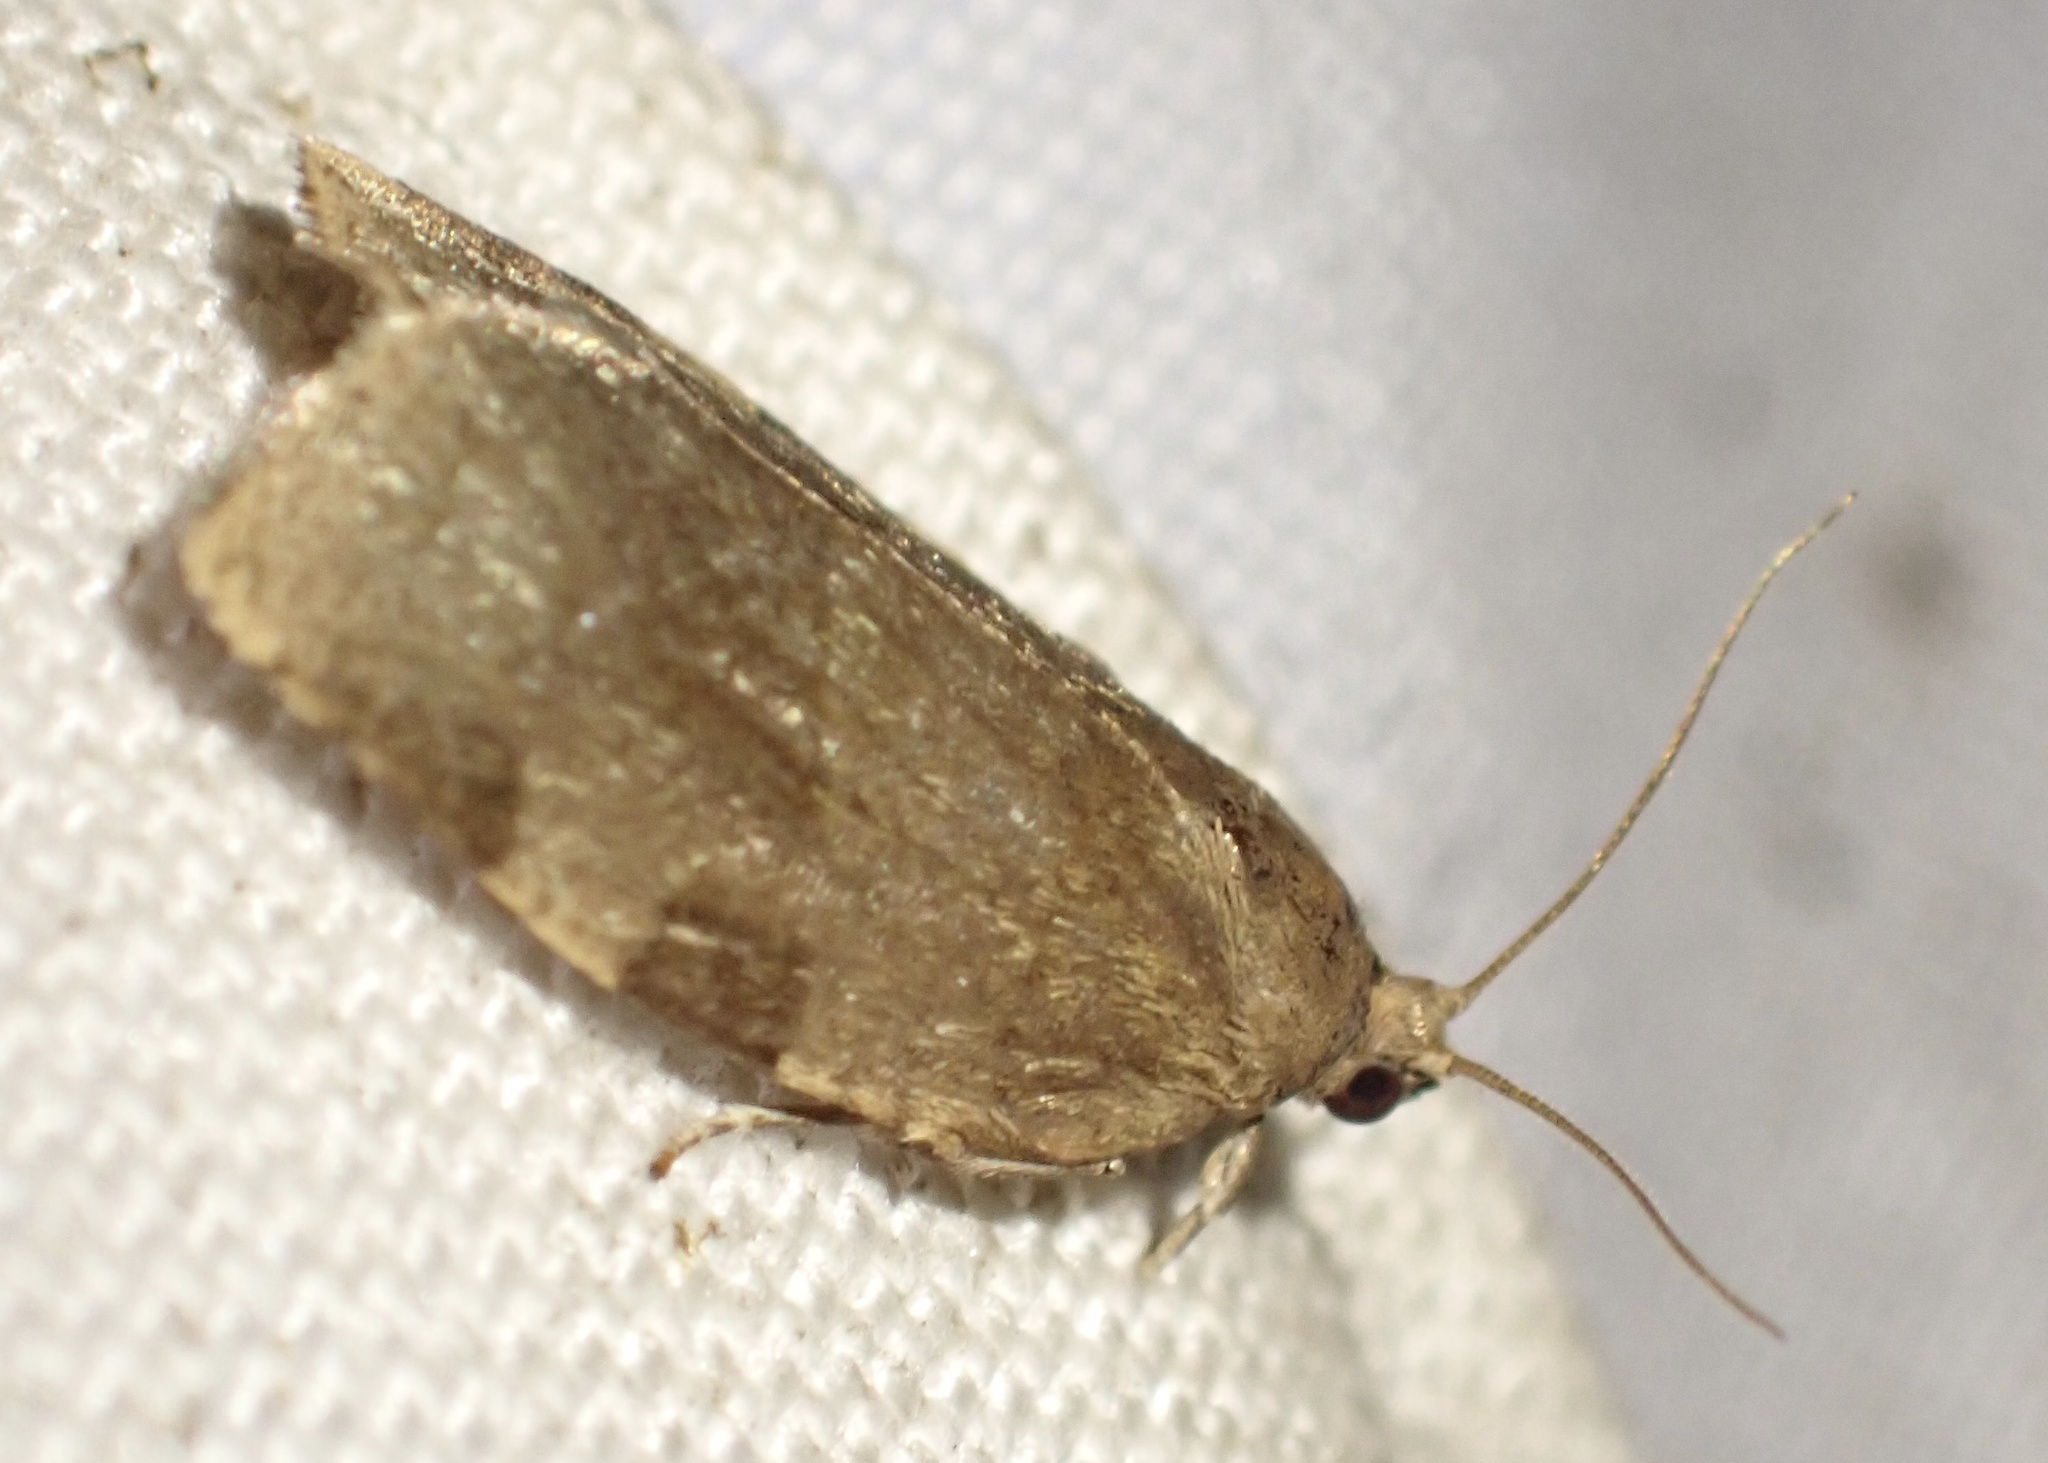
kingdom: Animalia
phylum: Arthropoda
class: Insecta
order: Lepidoptera
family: Tortricidae
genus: Choristoneura
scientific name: Choristoneura hebenstreitella
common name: Great twist
